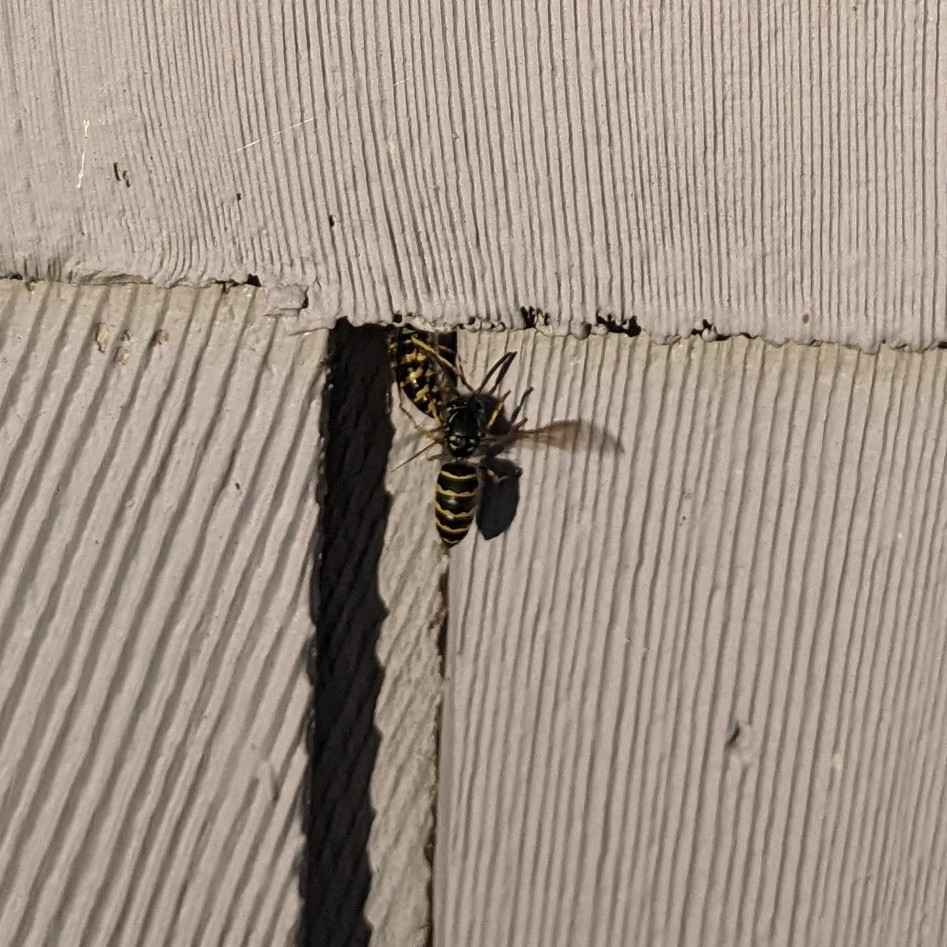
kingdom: Animalia
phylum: Arthropoda
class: Insecta
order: Hymenoptera
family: Vespidae
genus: Vespula
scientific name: Vespula alascensis
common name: Alaska yellowjacket
